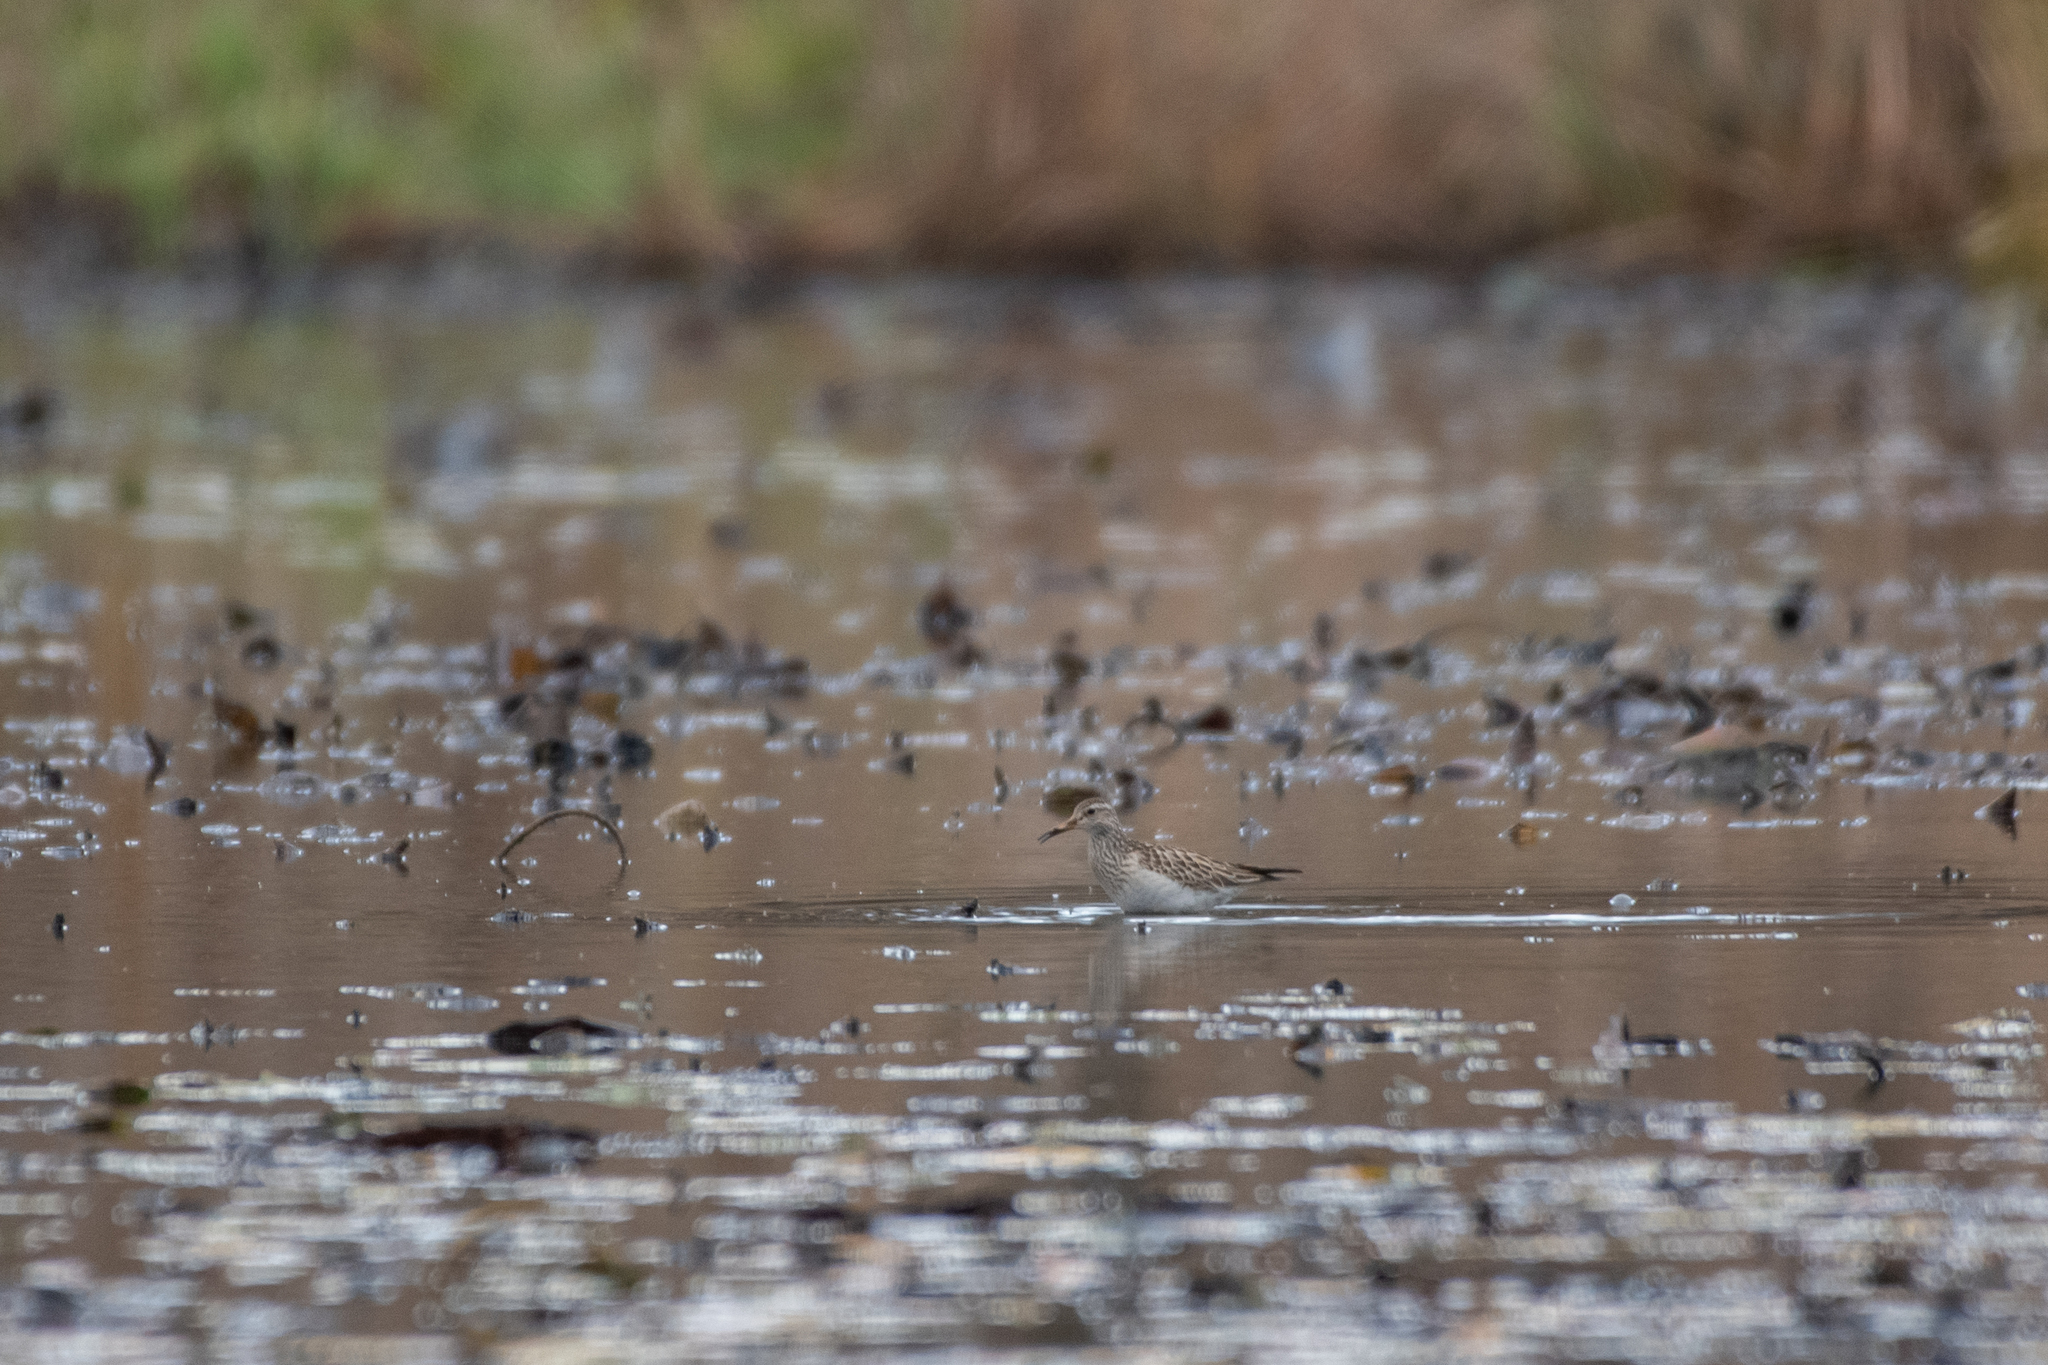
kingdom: Animalia
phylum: Chordata
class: Aves
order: Charadriiformes
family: Scolopacidae
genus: Calidris
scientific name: Calidris melanotos
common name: Pectoral sandpiper
